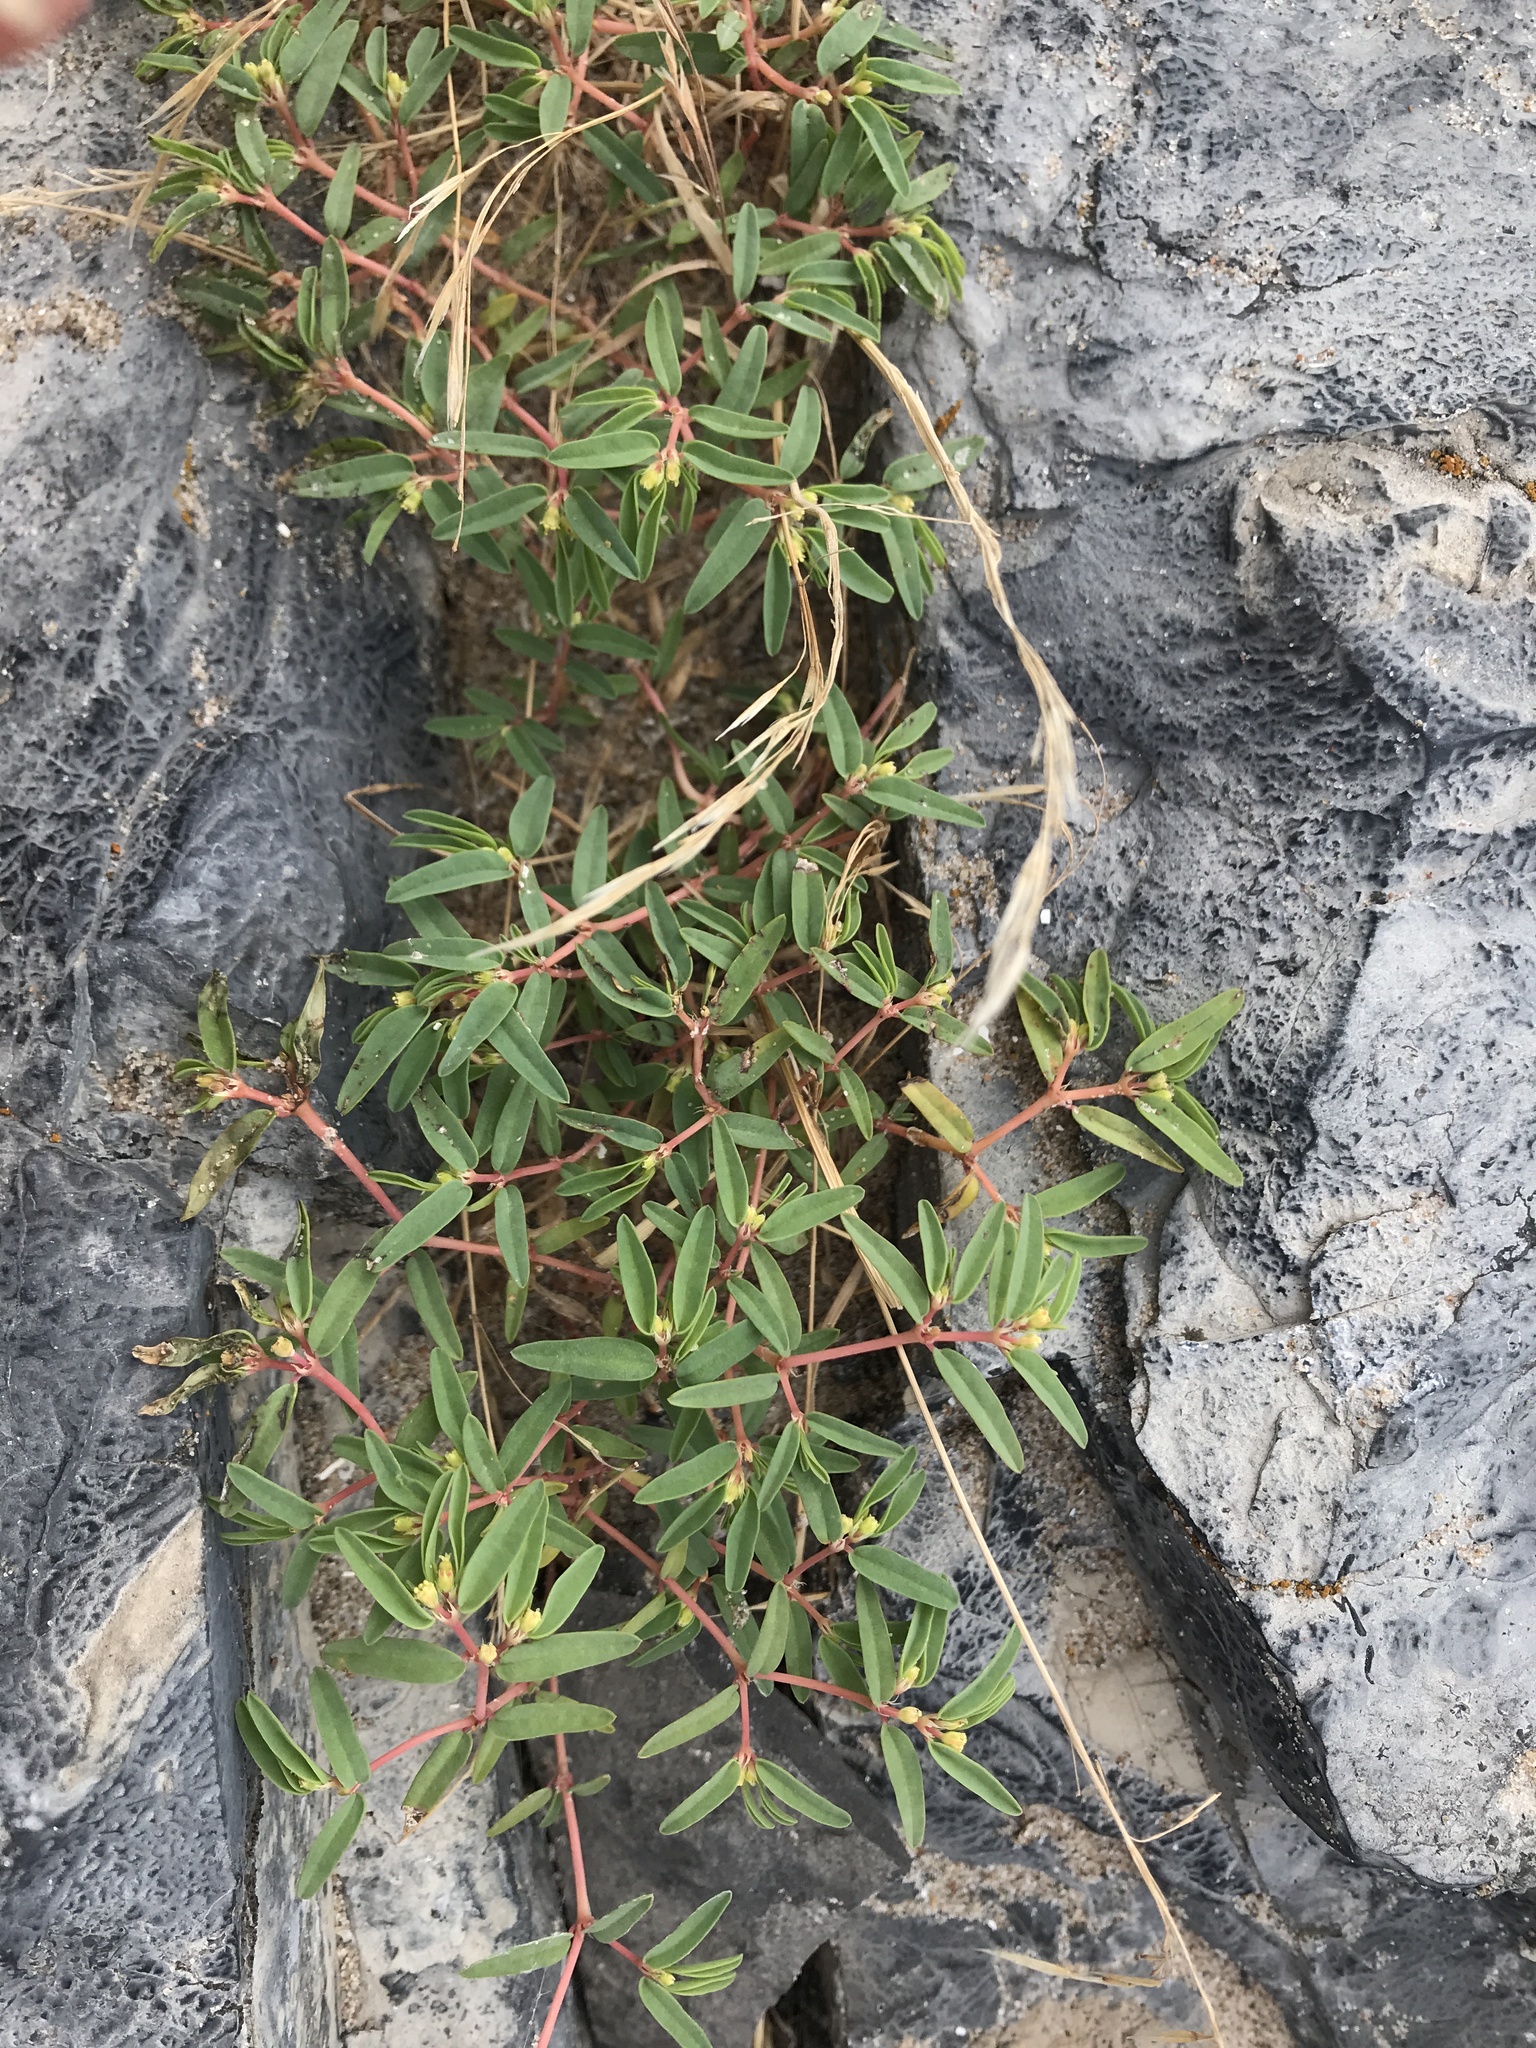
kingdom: Plantae
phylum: Tracheophyta
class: Magnoliopsida
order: Malpighiales
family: Euphorbiaceae
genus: Euphorbia
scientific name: Euphorbia polygonifolia
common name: Knotweed spurge
